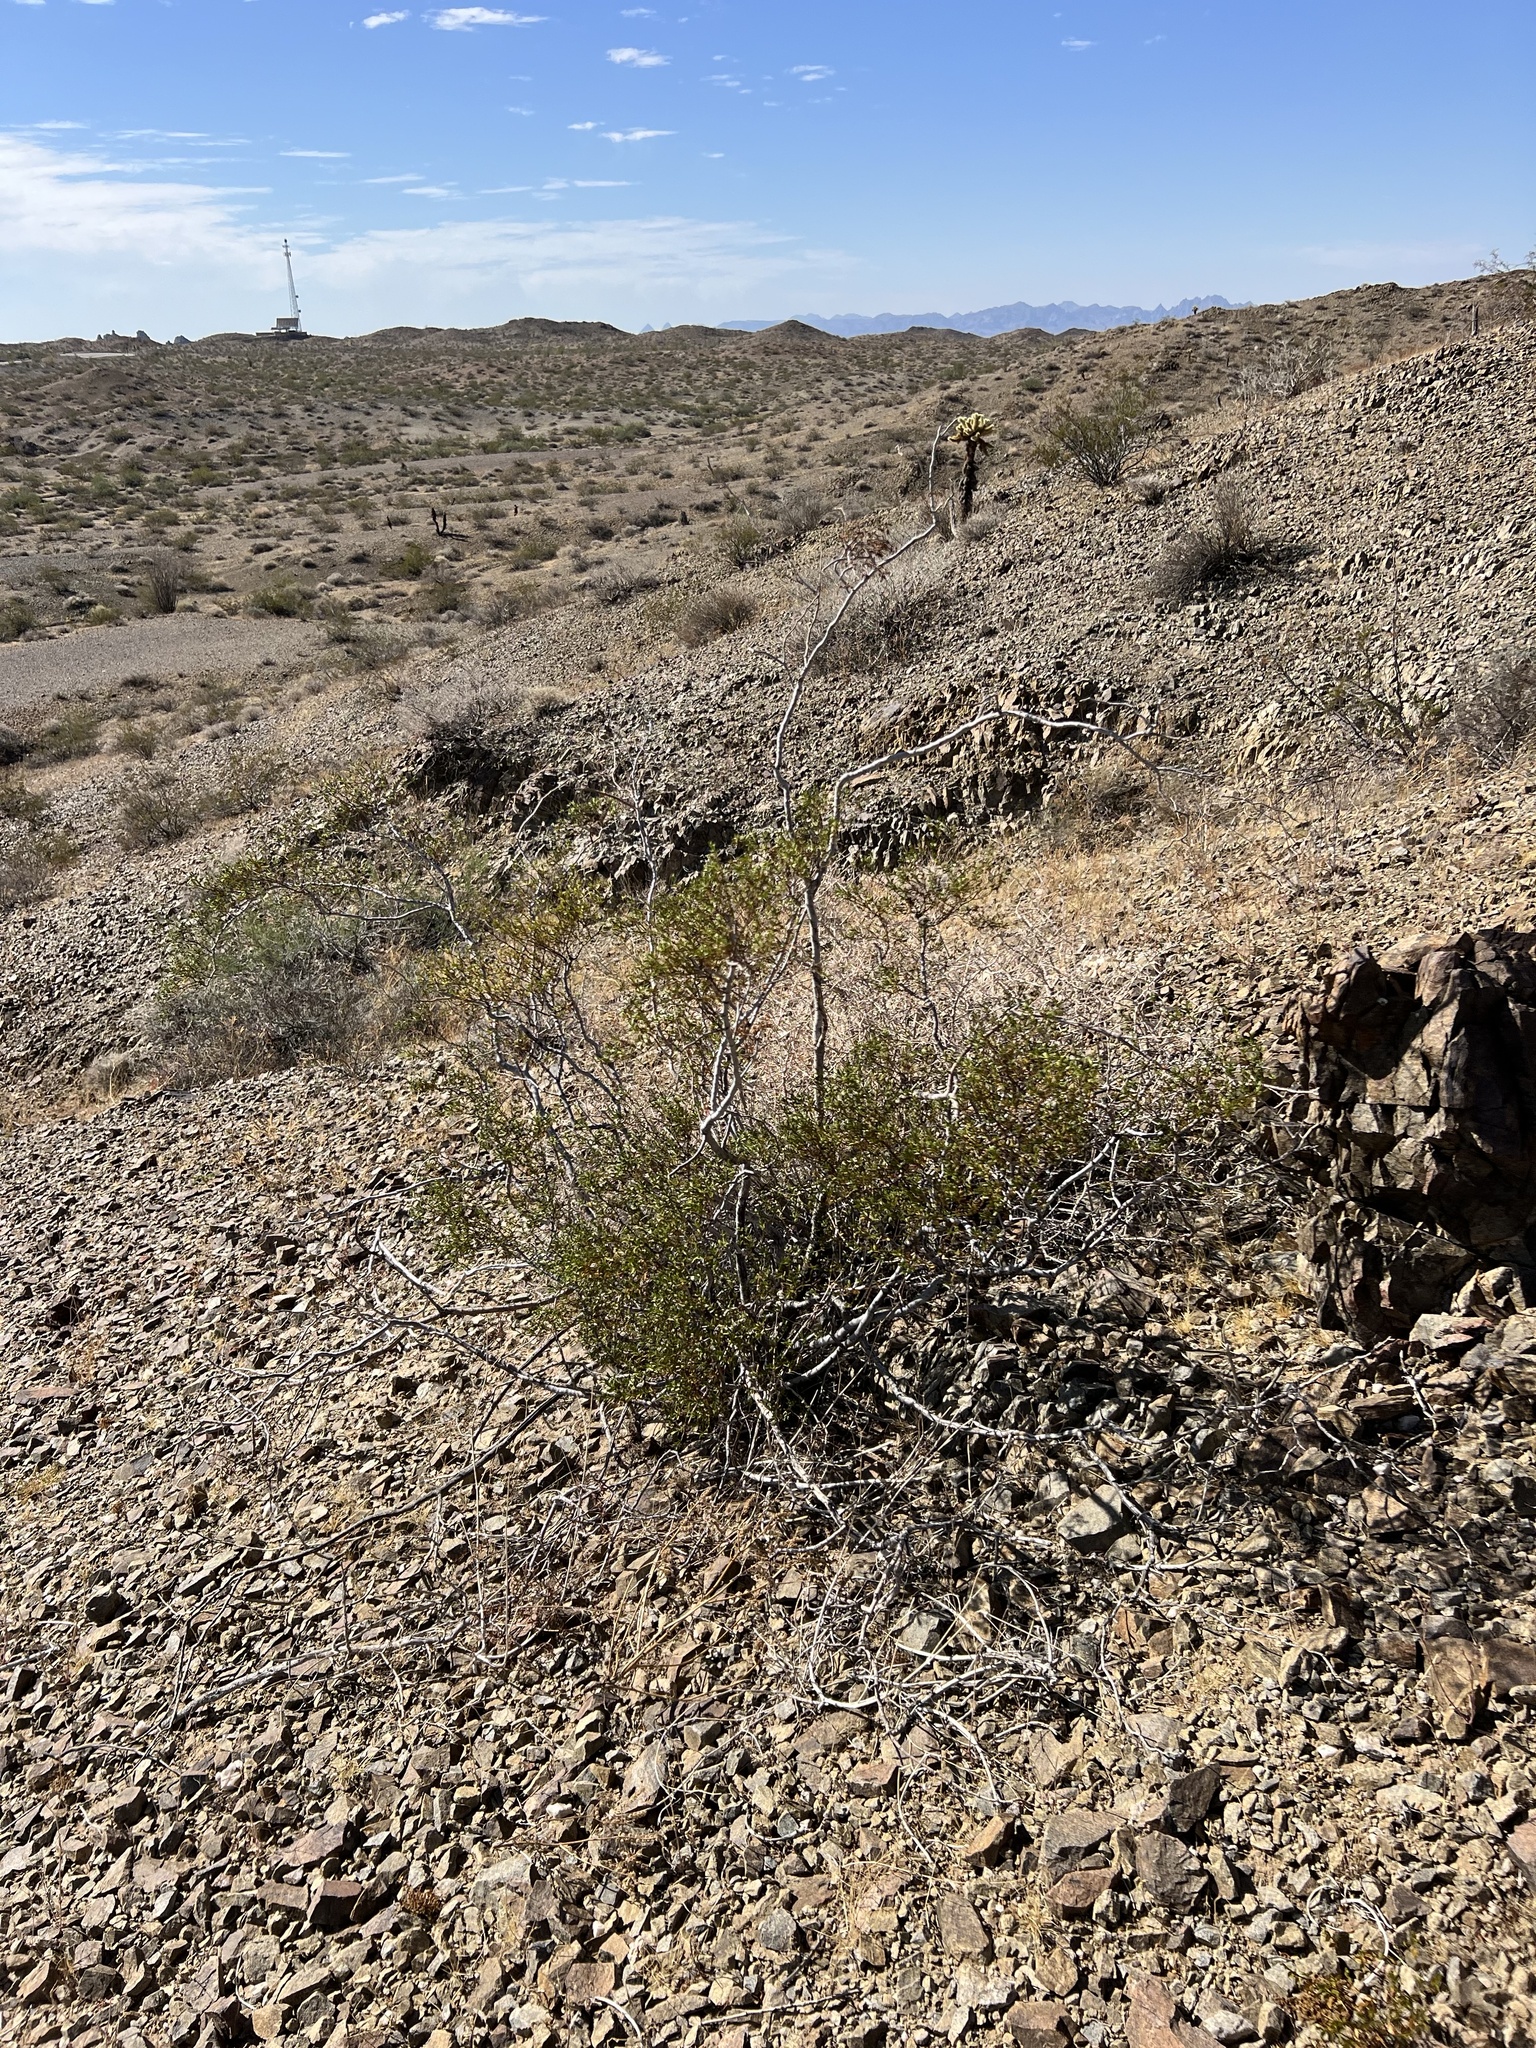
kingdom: Plantae
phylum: Tracheophyta
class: Magnoliopsida
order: Zygophyllales
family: Zygophyllaceae
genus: Larrea
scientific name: Larrea tridentata
